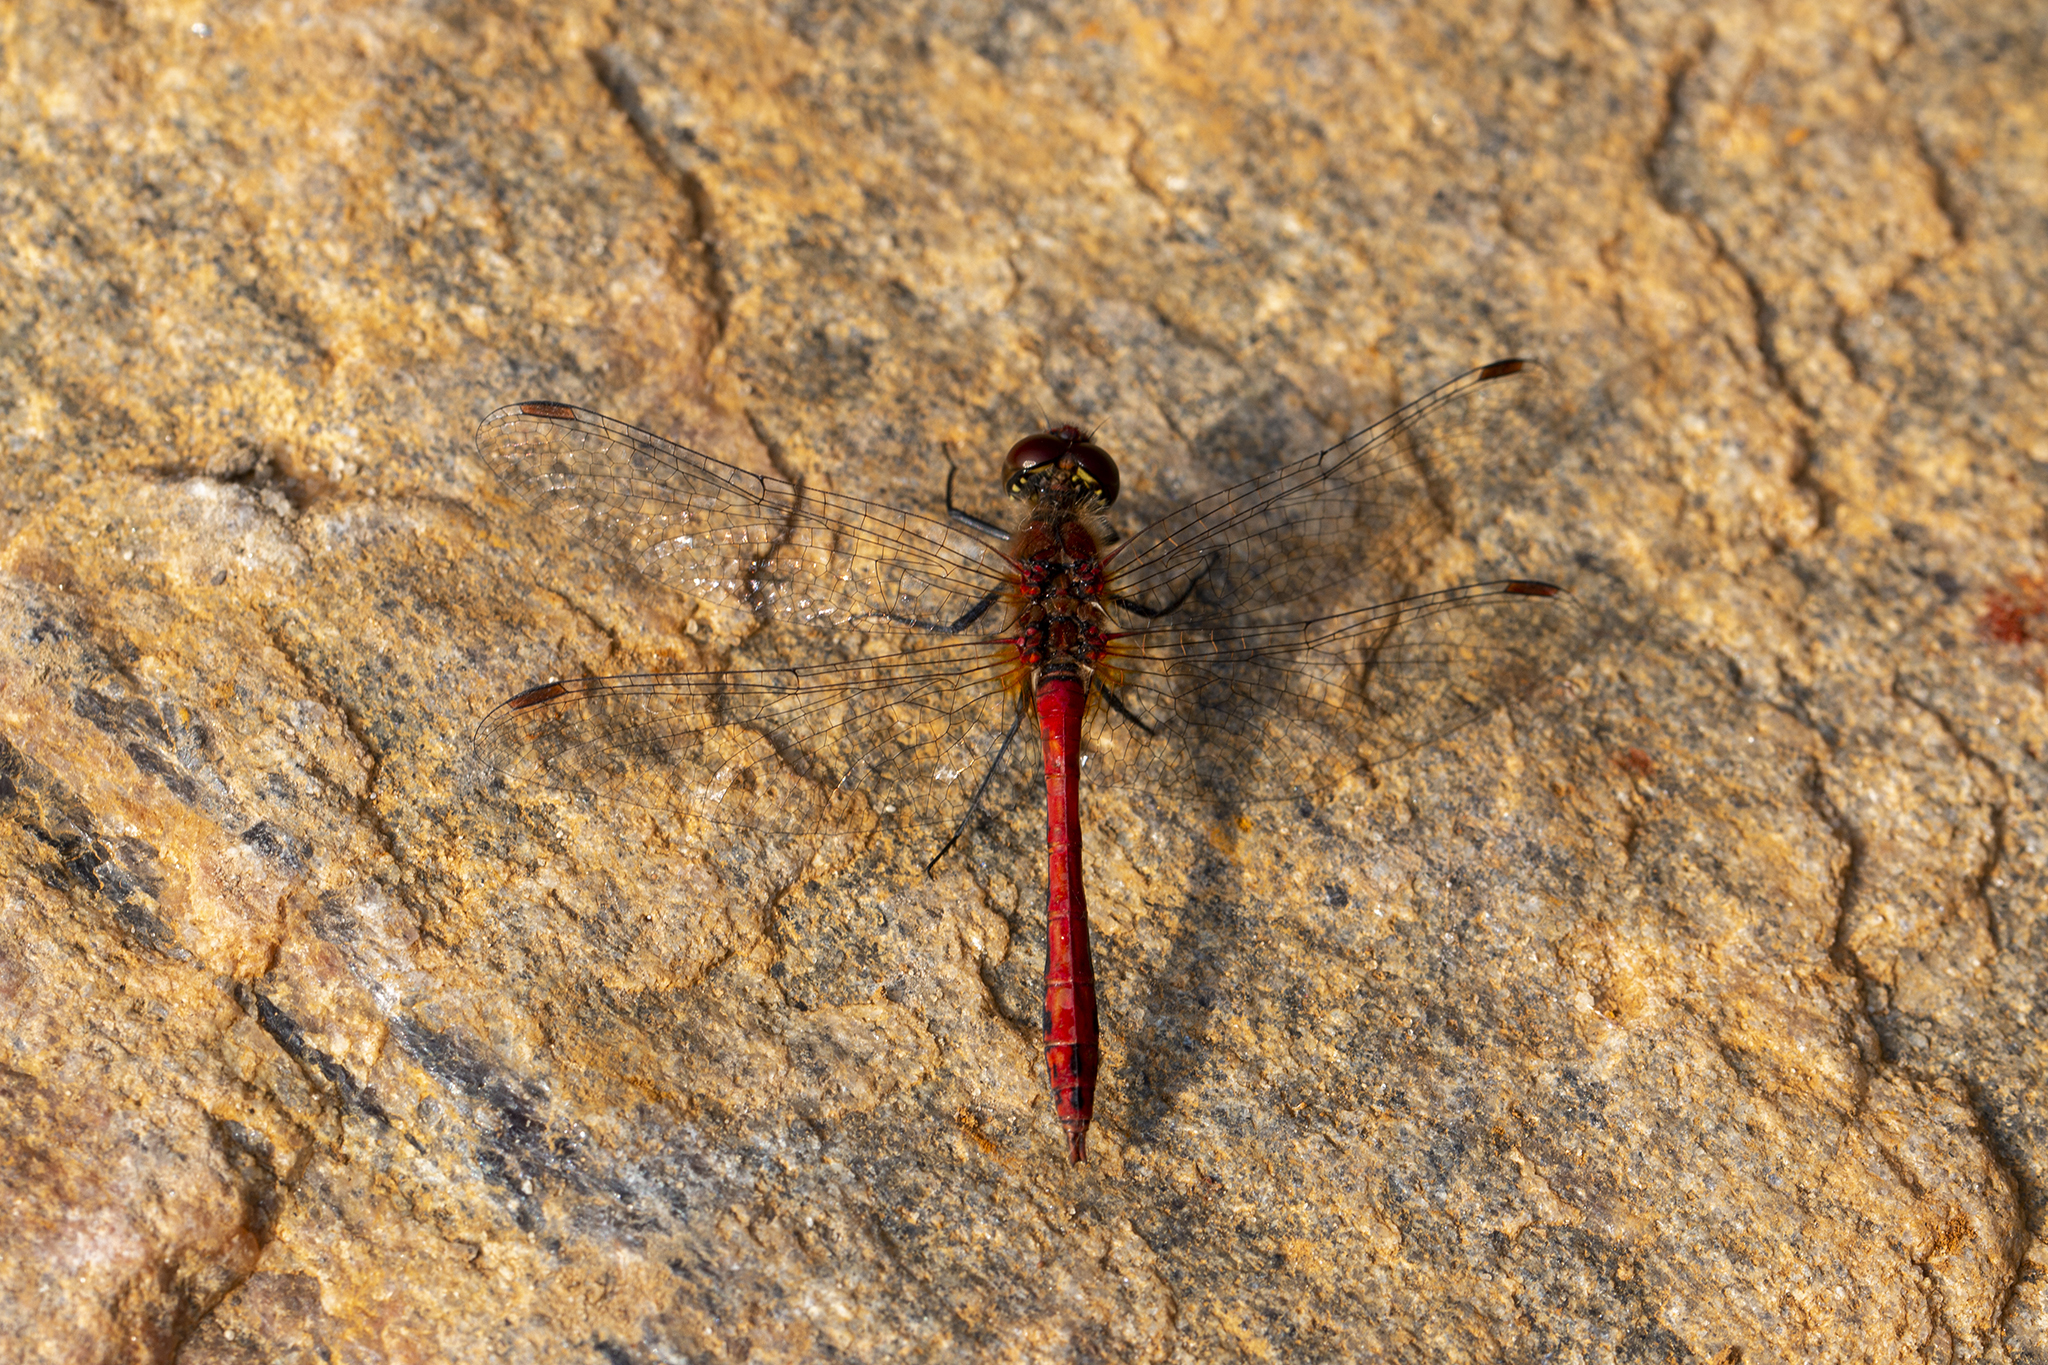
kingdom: Animalia
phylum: Arthropoda
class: Insecta
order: Odonata
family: Libellulidae
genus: Sympetrum
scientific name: Sympetrum sanguineum
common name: Ruddy darter
